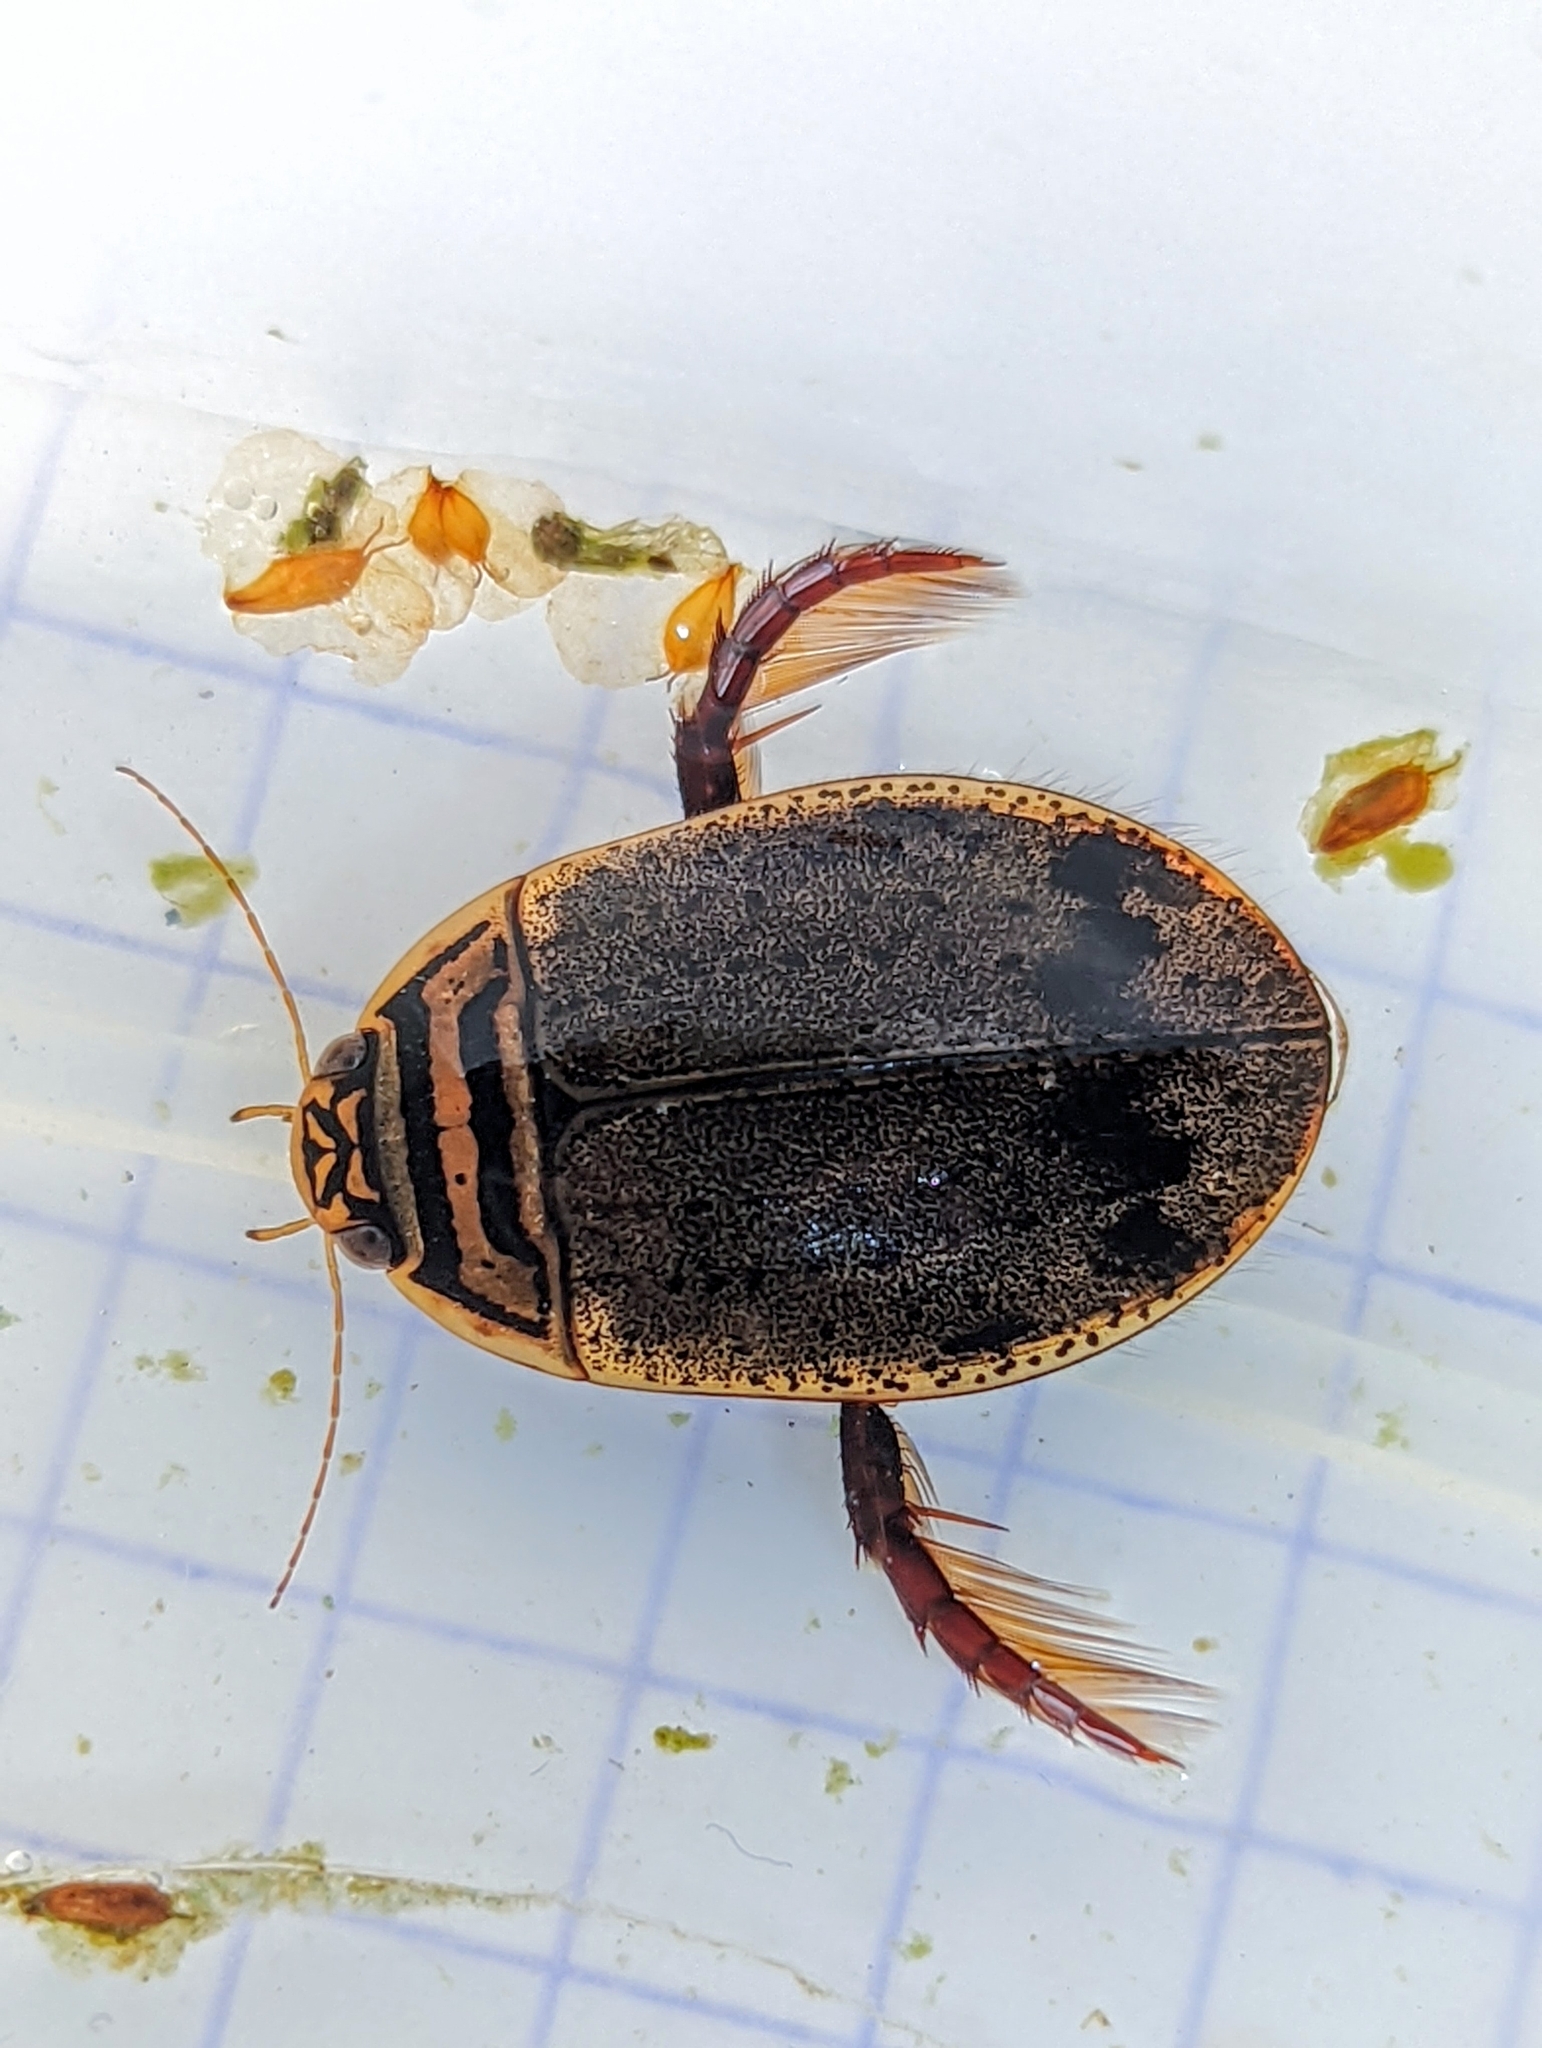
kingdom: Animalia
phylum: Arthropoda
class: Insecta
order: Coleoptera
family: Dytiscidae
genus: Acilius
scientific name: Acilius sulcatus
